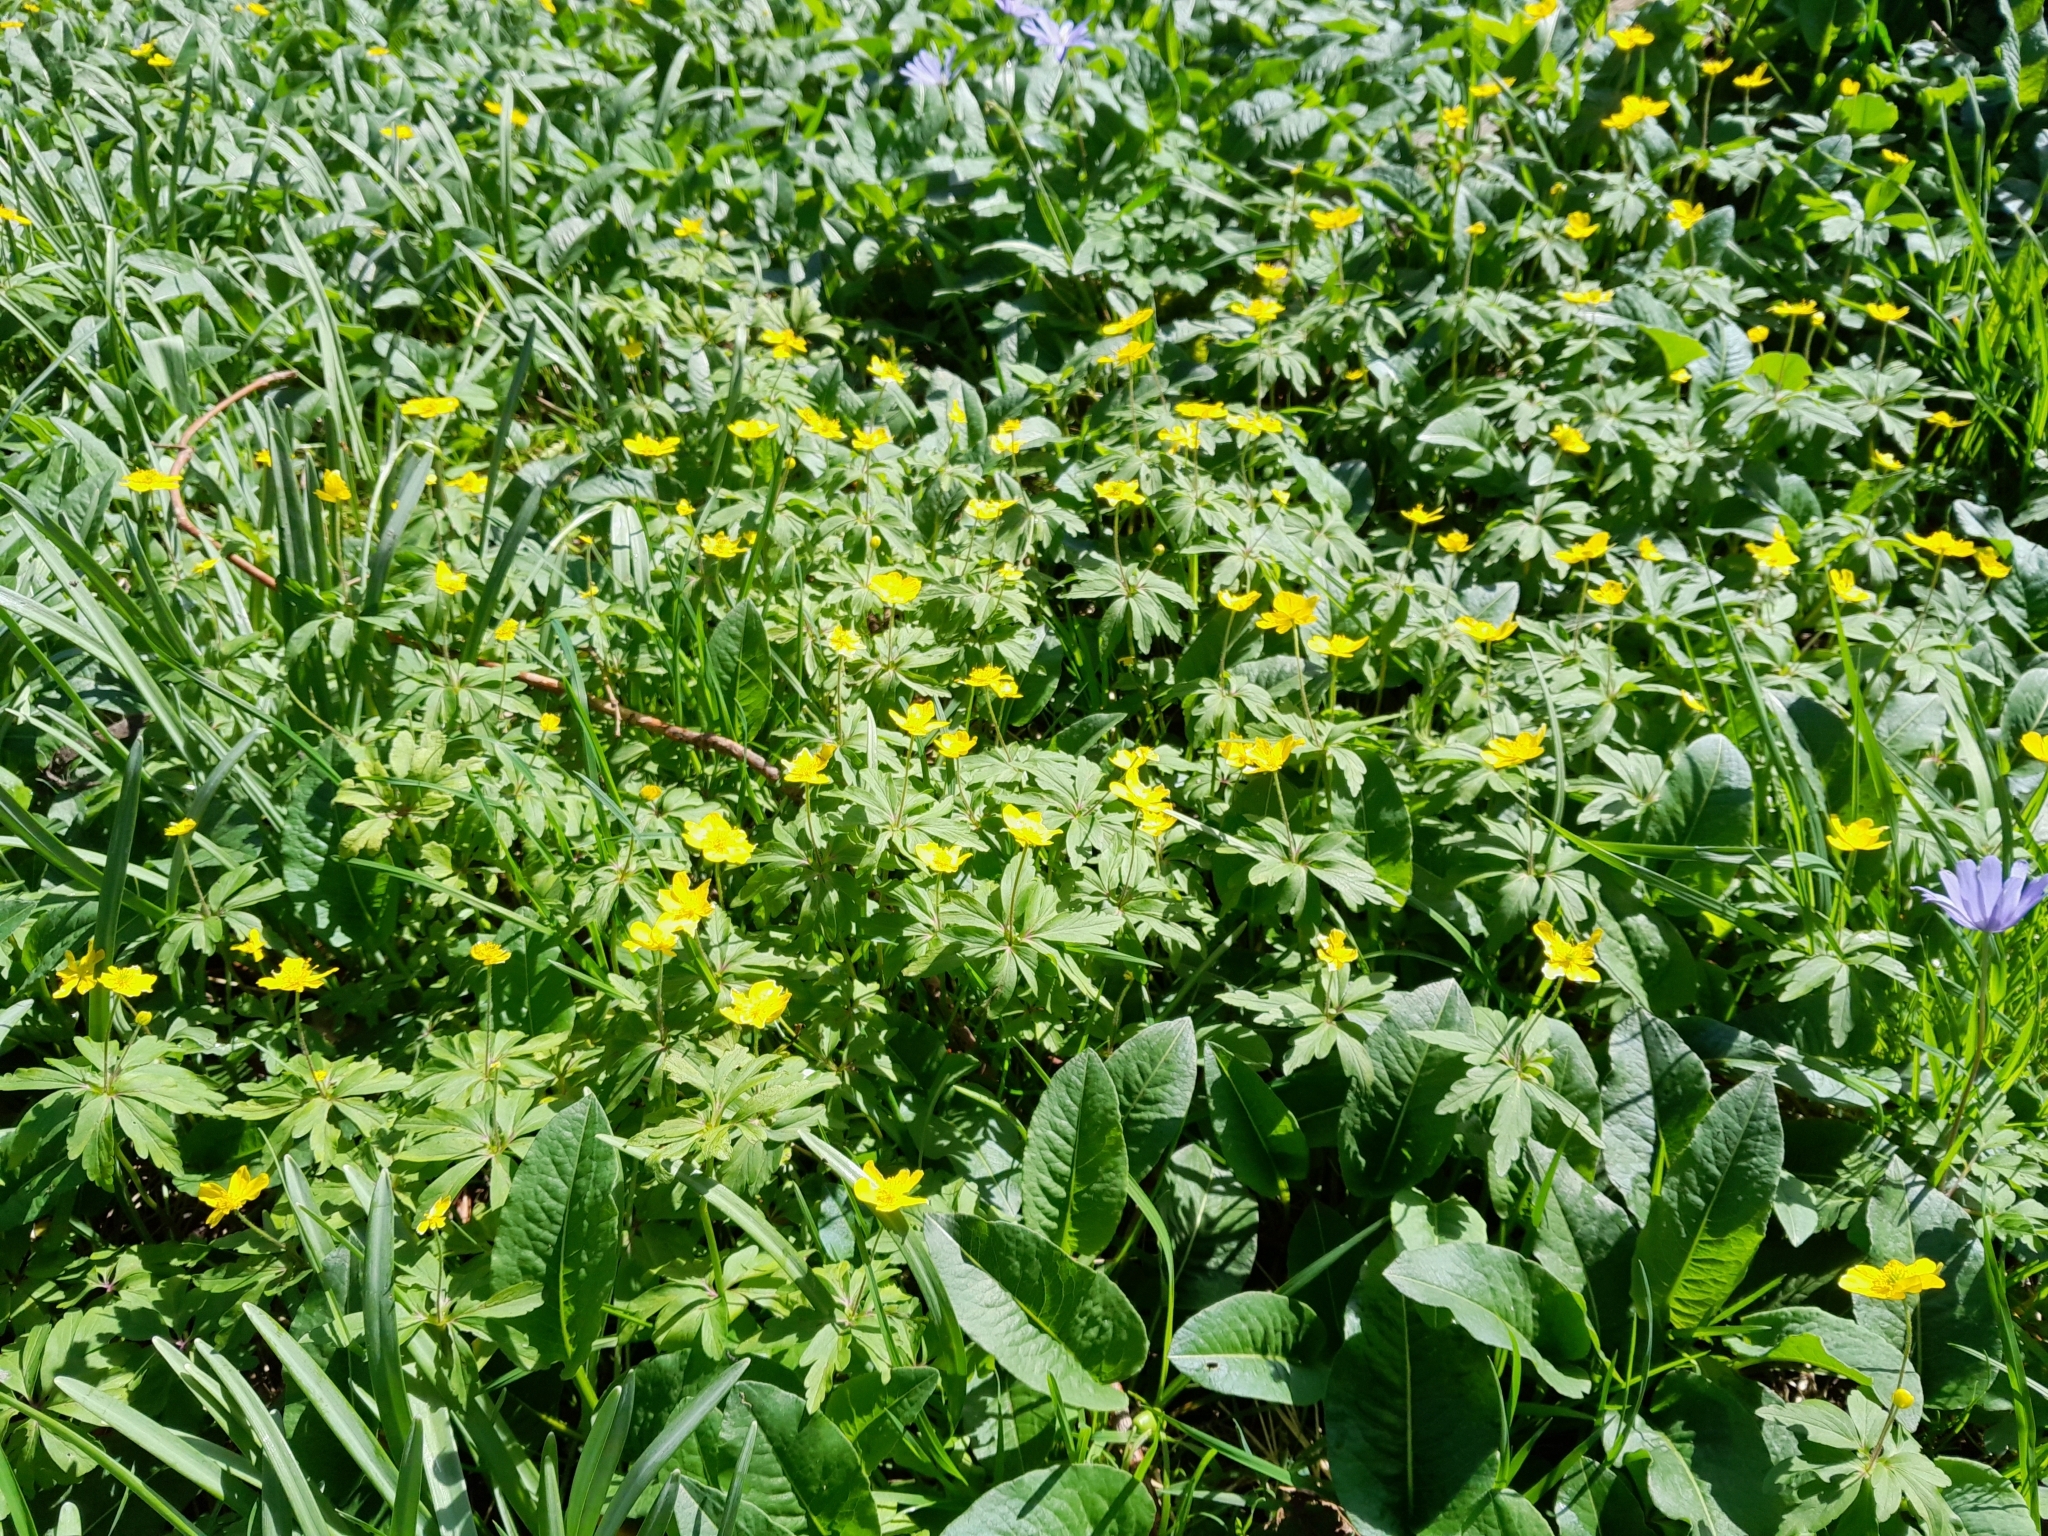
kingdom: Plantae
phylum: Tracheophyta
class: Magnoliopsida
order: Ranunculales
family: Ranunculaceae
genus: Anemone
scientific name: Anemone ranunculoides
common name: Yellow anemone
